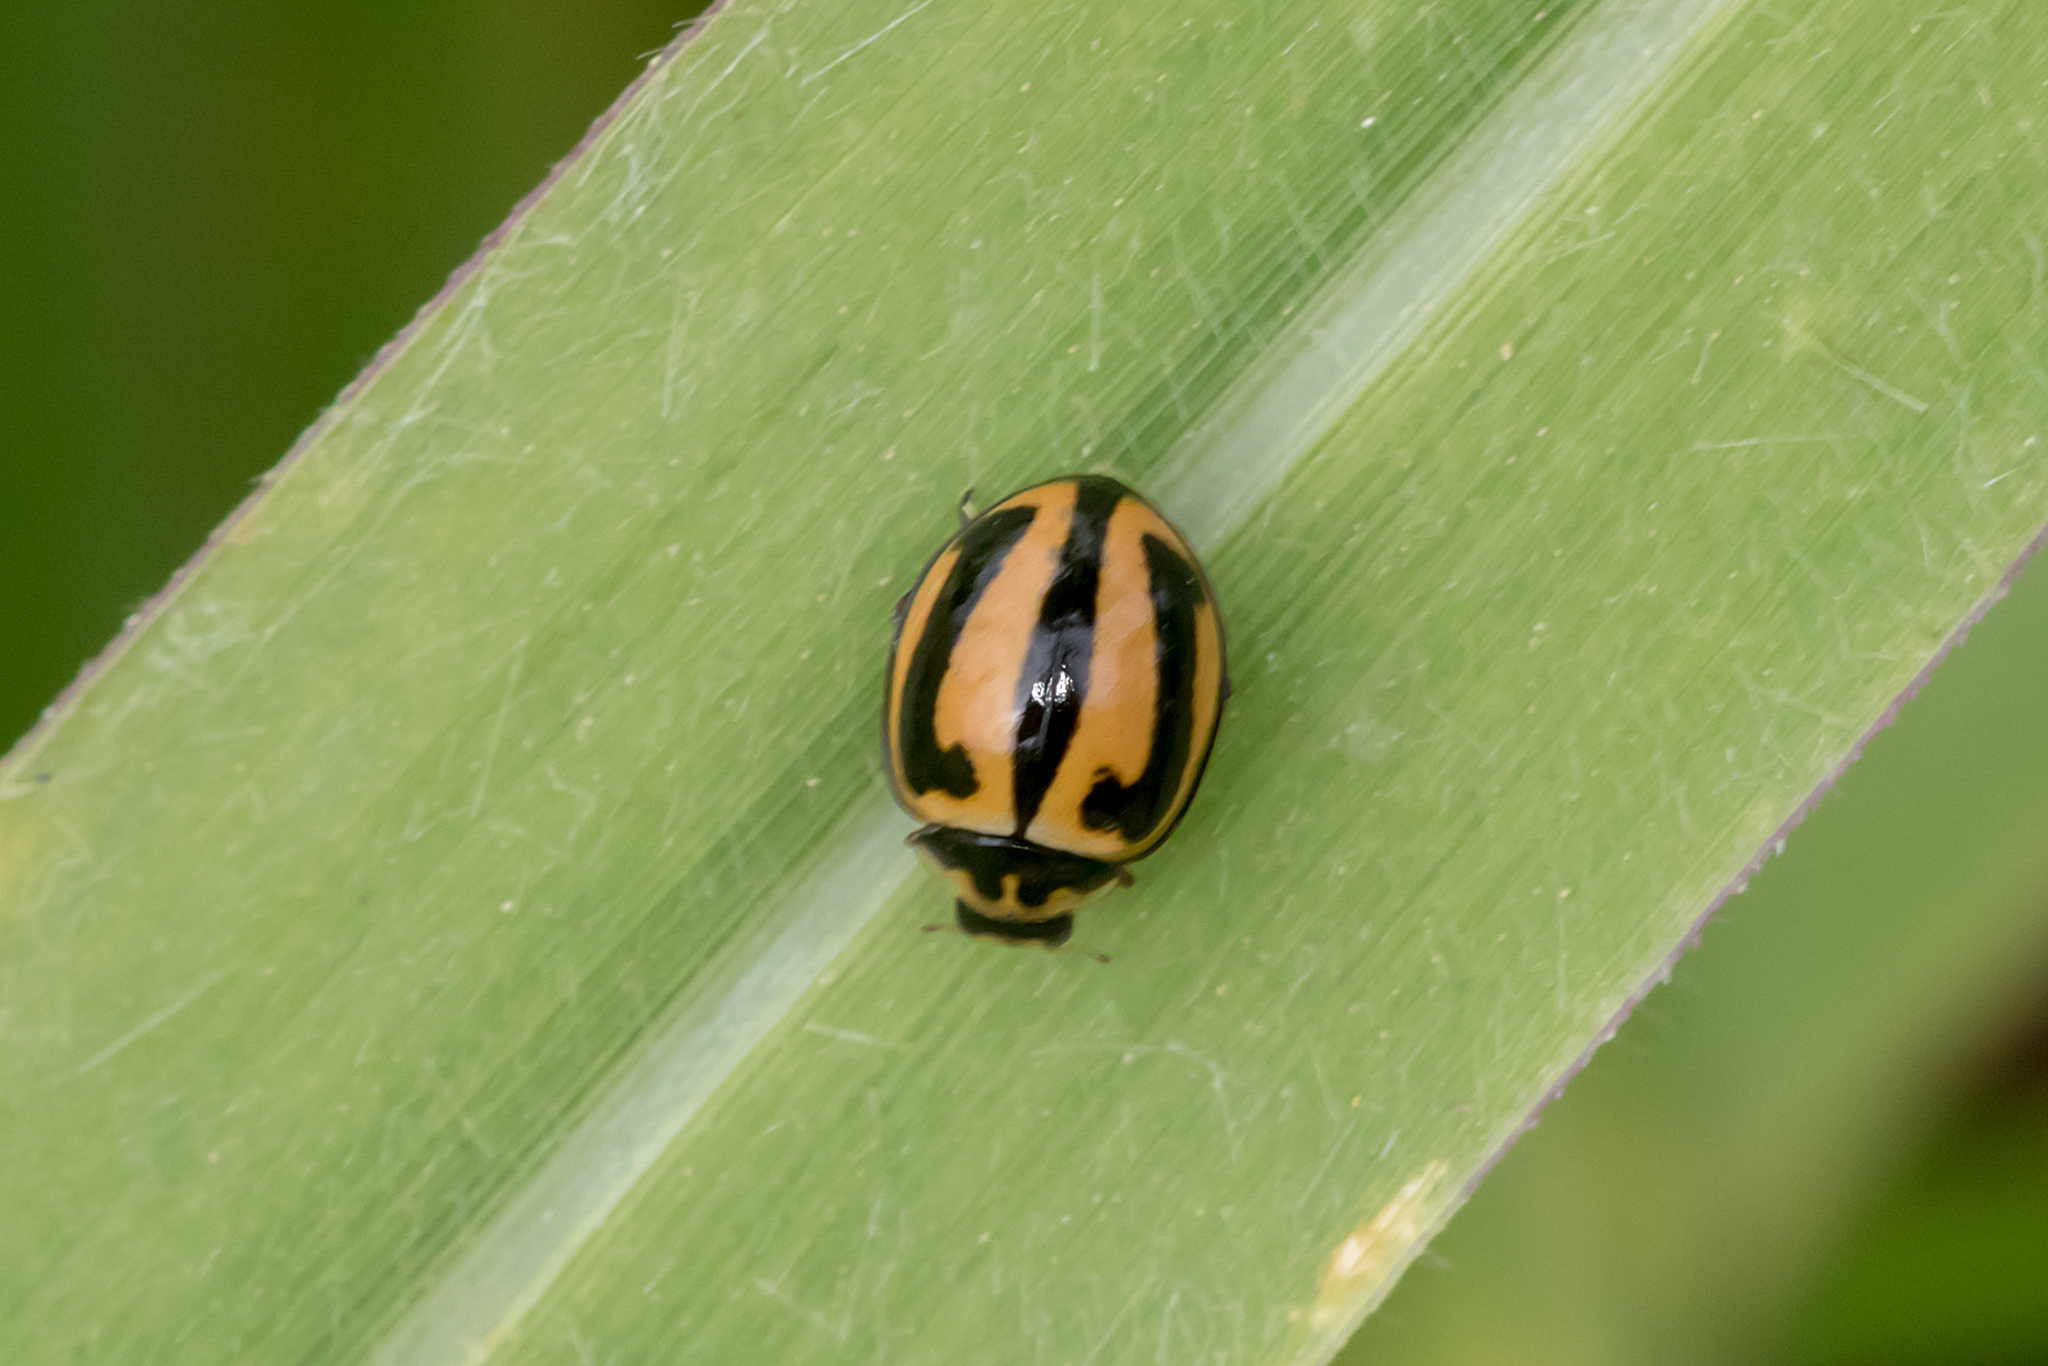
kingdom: Animalia
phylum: Arthropoda
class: Insecta
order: Coleoptera
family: Coccinellidae
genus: Micraspis
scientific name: Micraspis frenata
